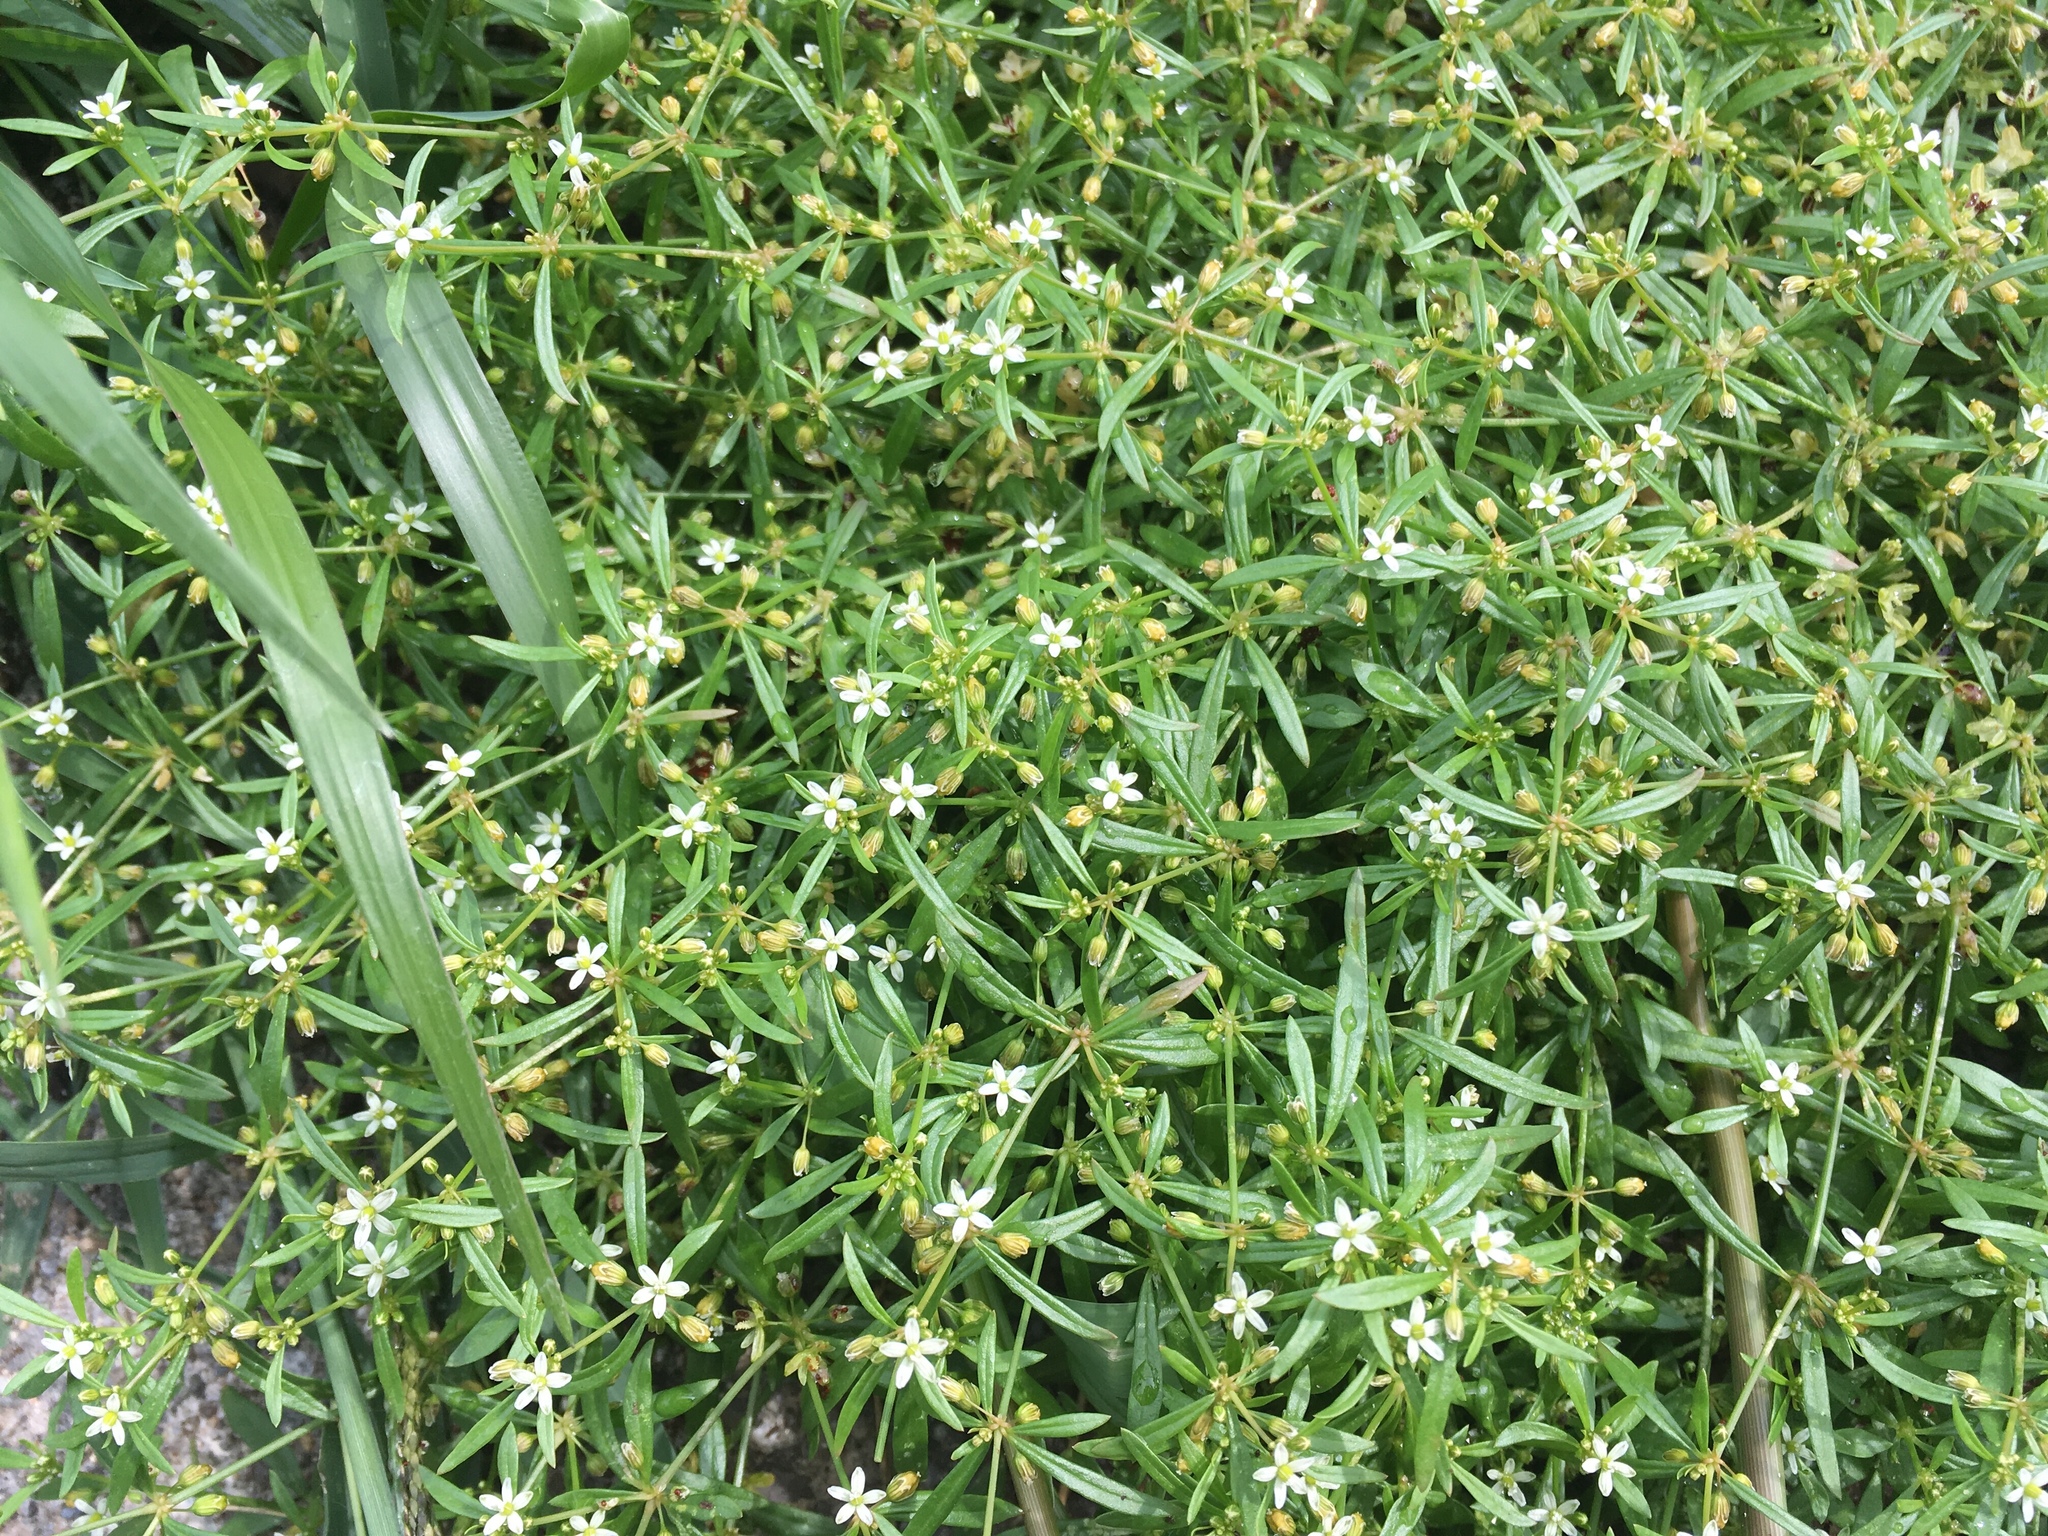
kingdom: Plantae
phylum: Tracheophyta
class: Magnoliopsida
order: Caryophyllales
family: Molluginaceae
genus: Mollugo
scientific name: Mollugo verticillata
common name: Green carpetweed
